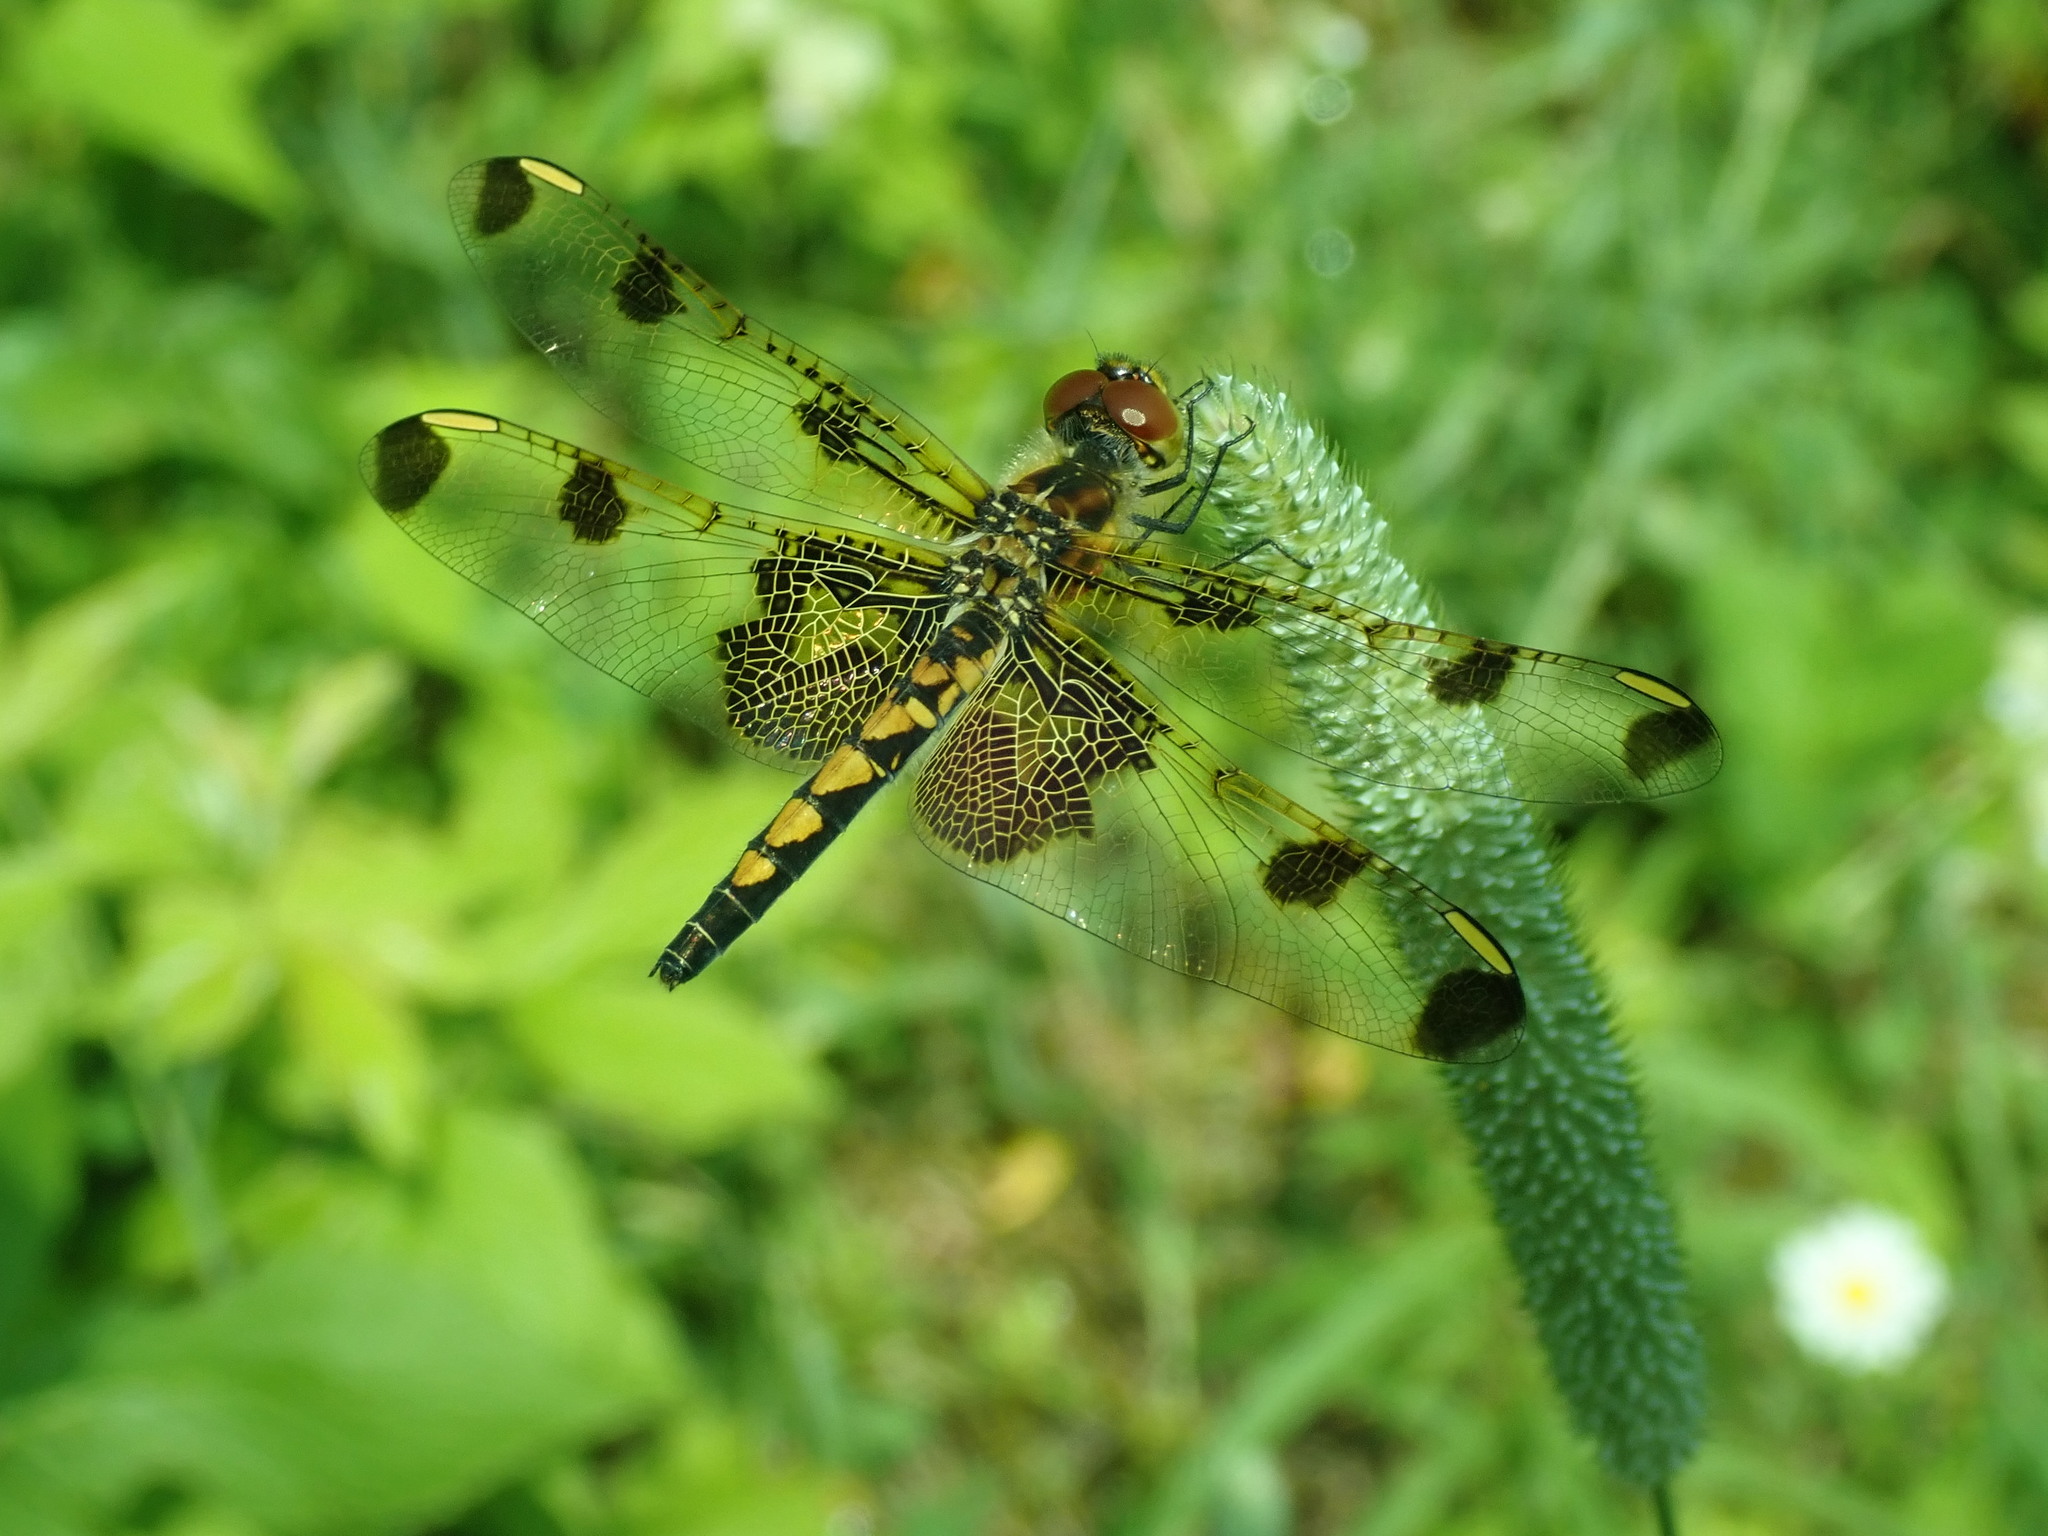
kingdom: Animalia
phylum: Arthropoda
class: Insecta
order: Odonata
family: Libellulidae
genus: Celithemis
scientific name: Celithemis elisa
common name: Calico pennant
